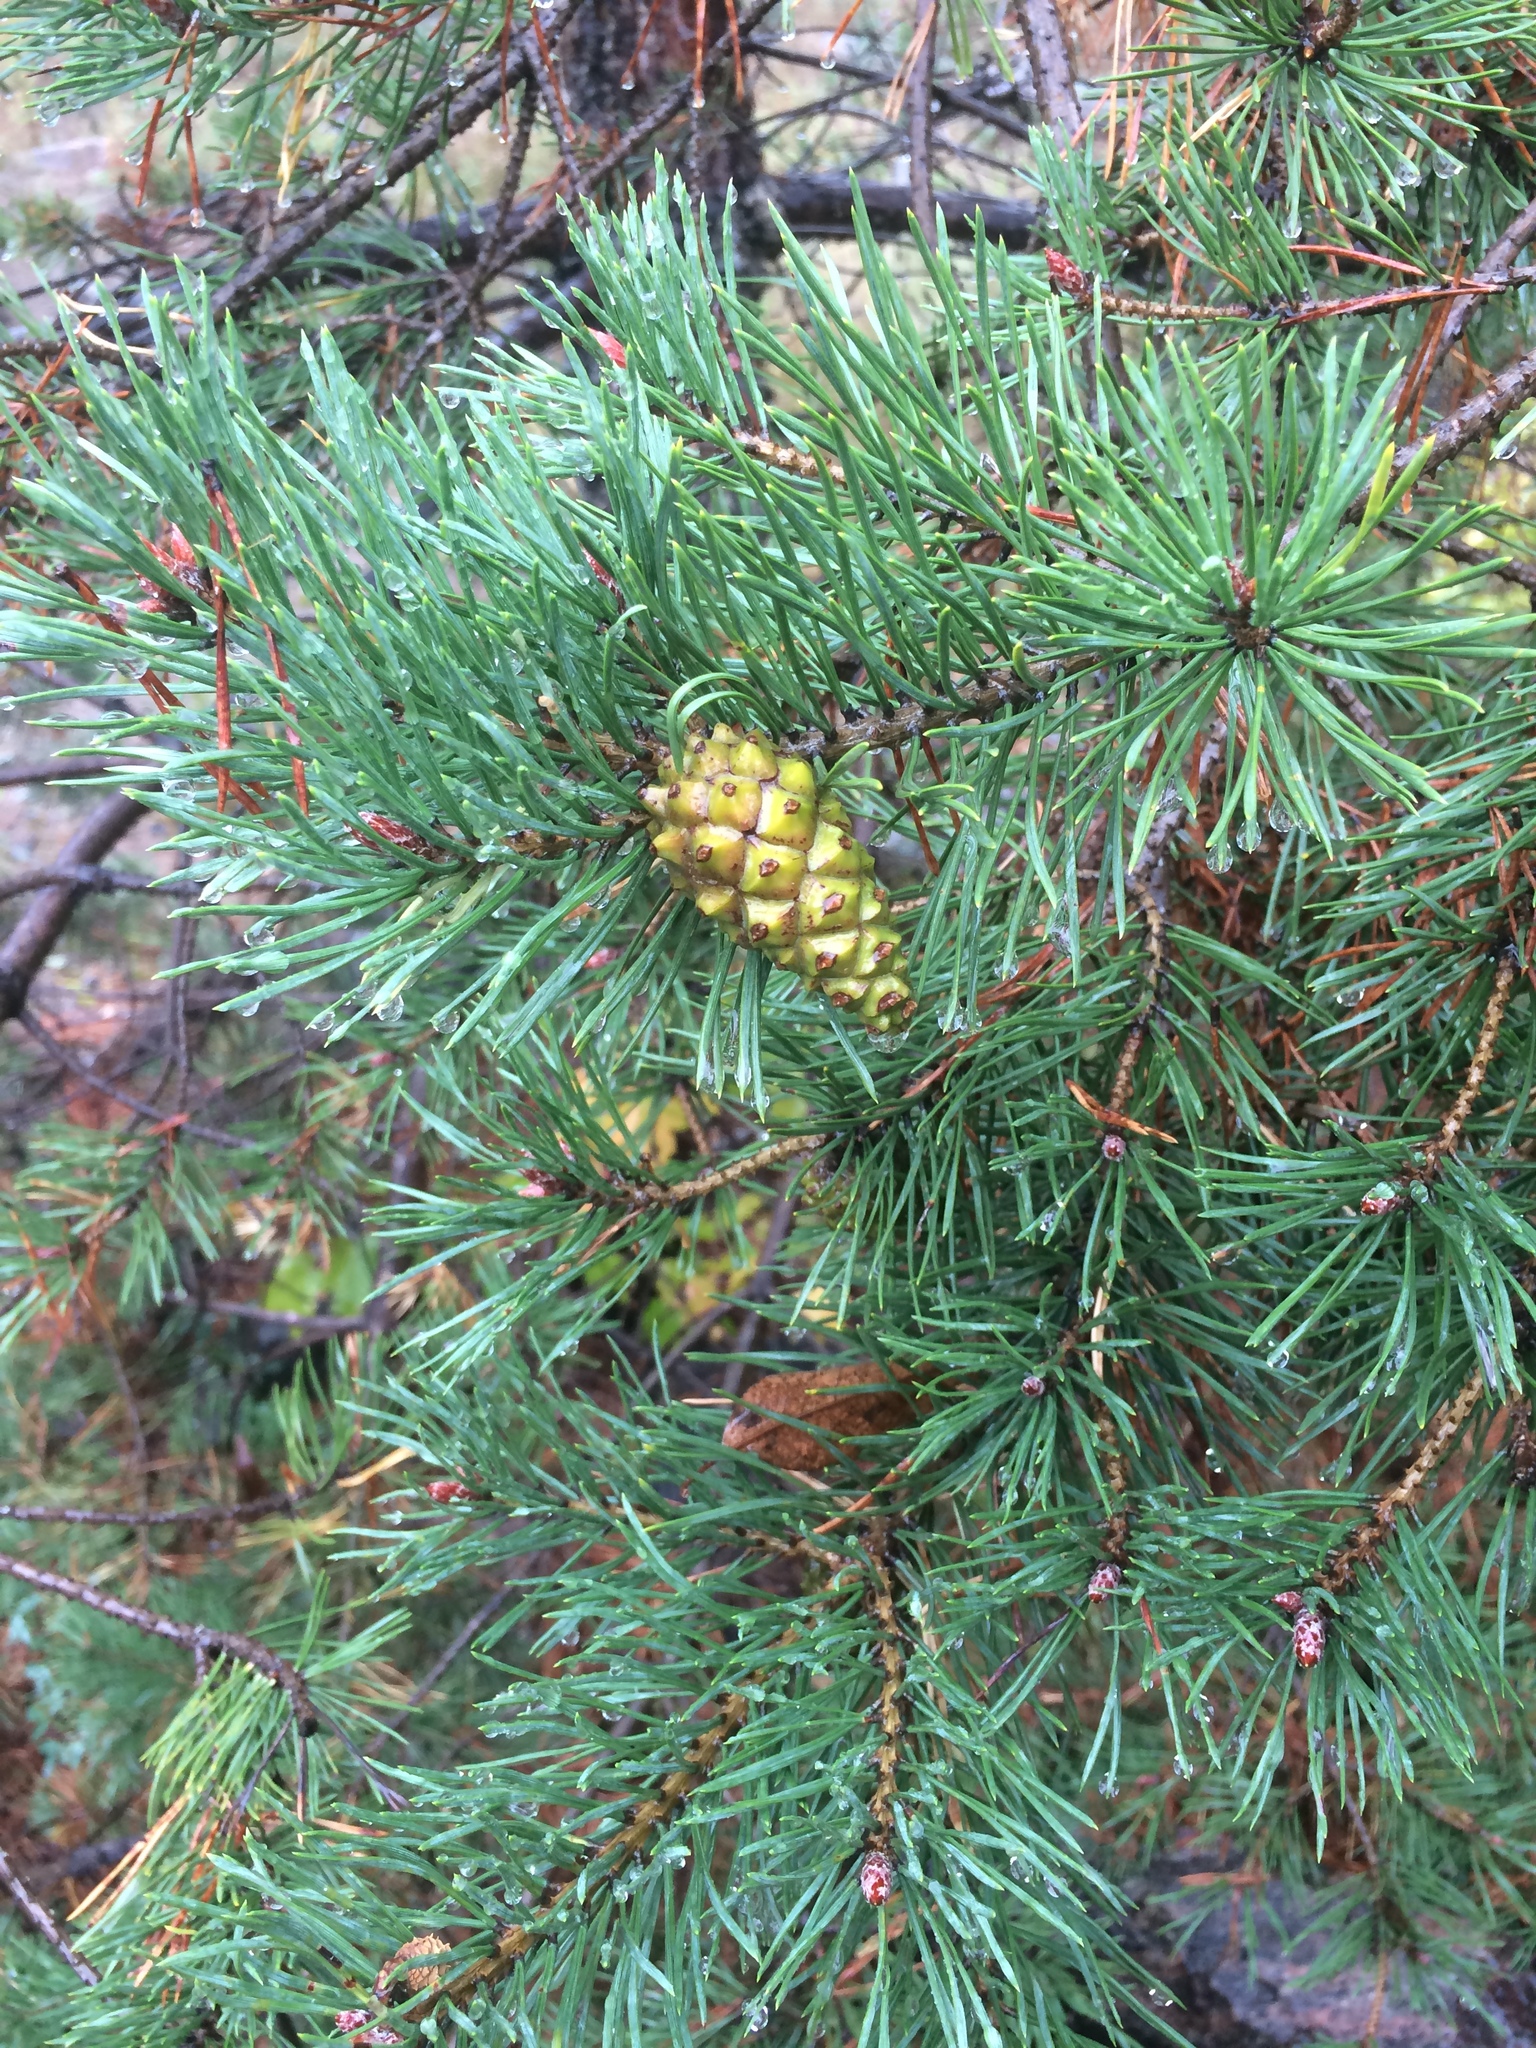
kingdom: Plantae
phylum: Tracheophyta
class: Pinopsida
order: Pinales
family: Pinaceae
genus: Pinus
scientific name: Pinus sylvestris
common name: Scots pine
